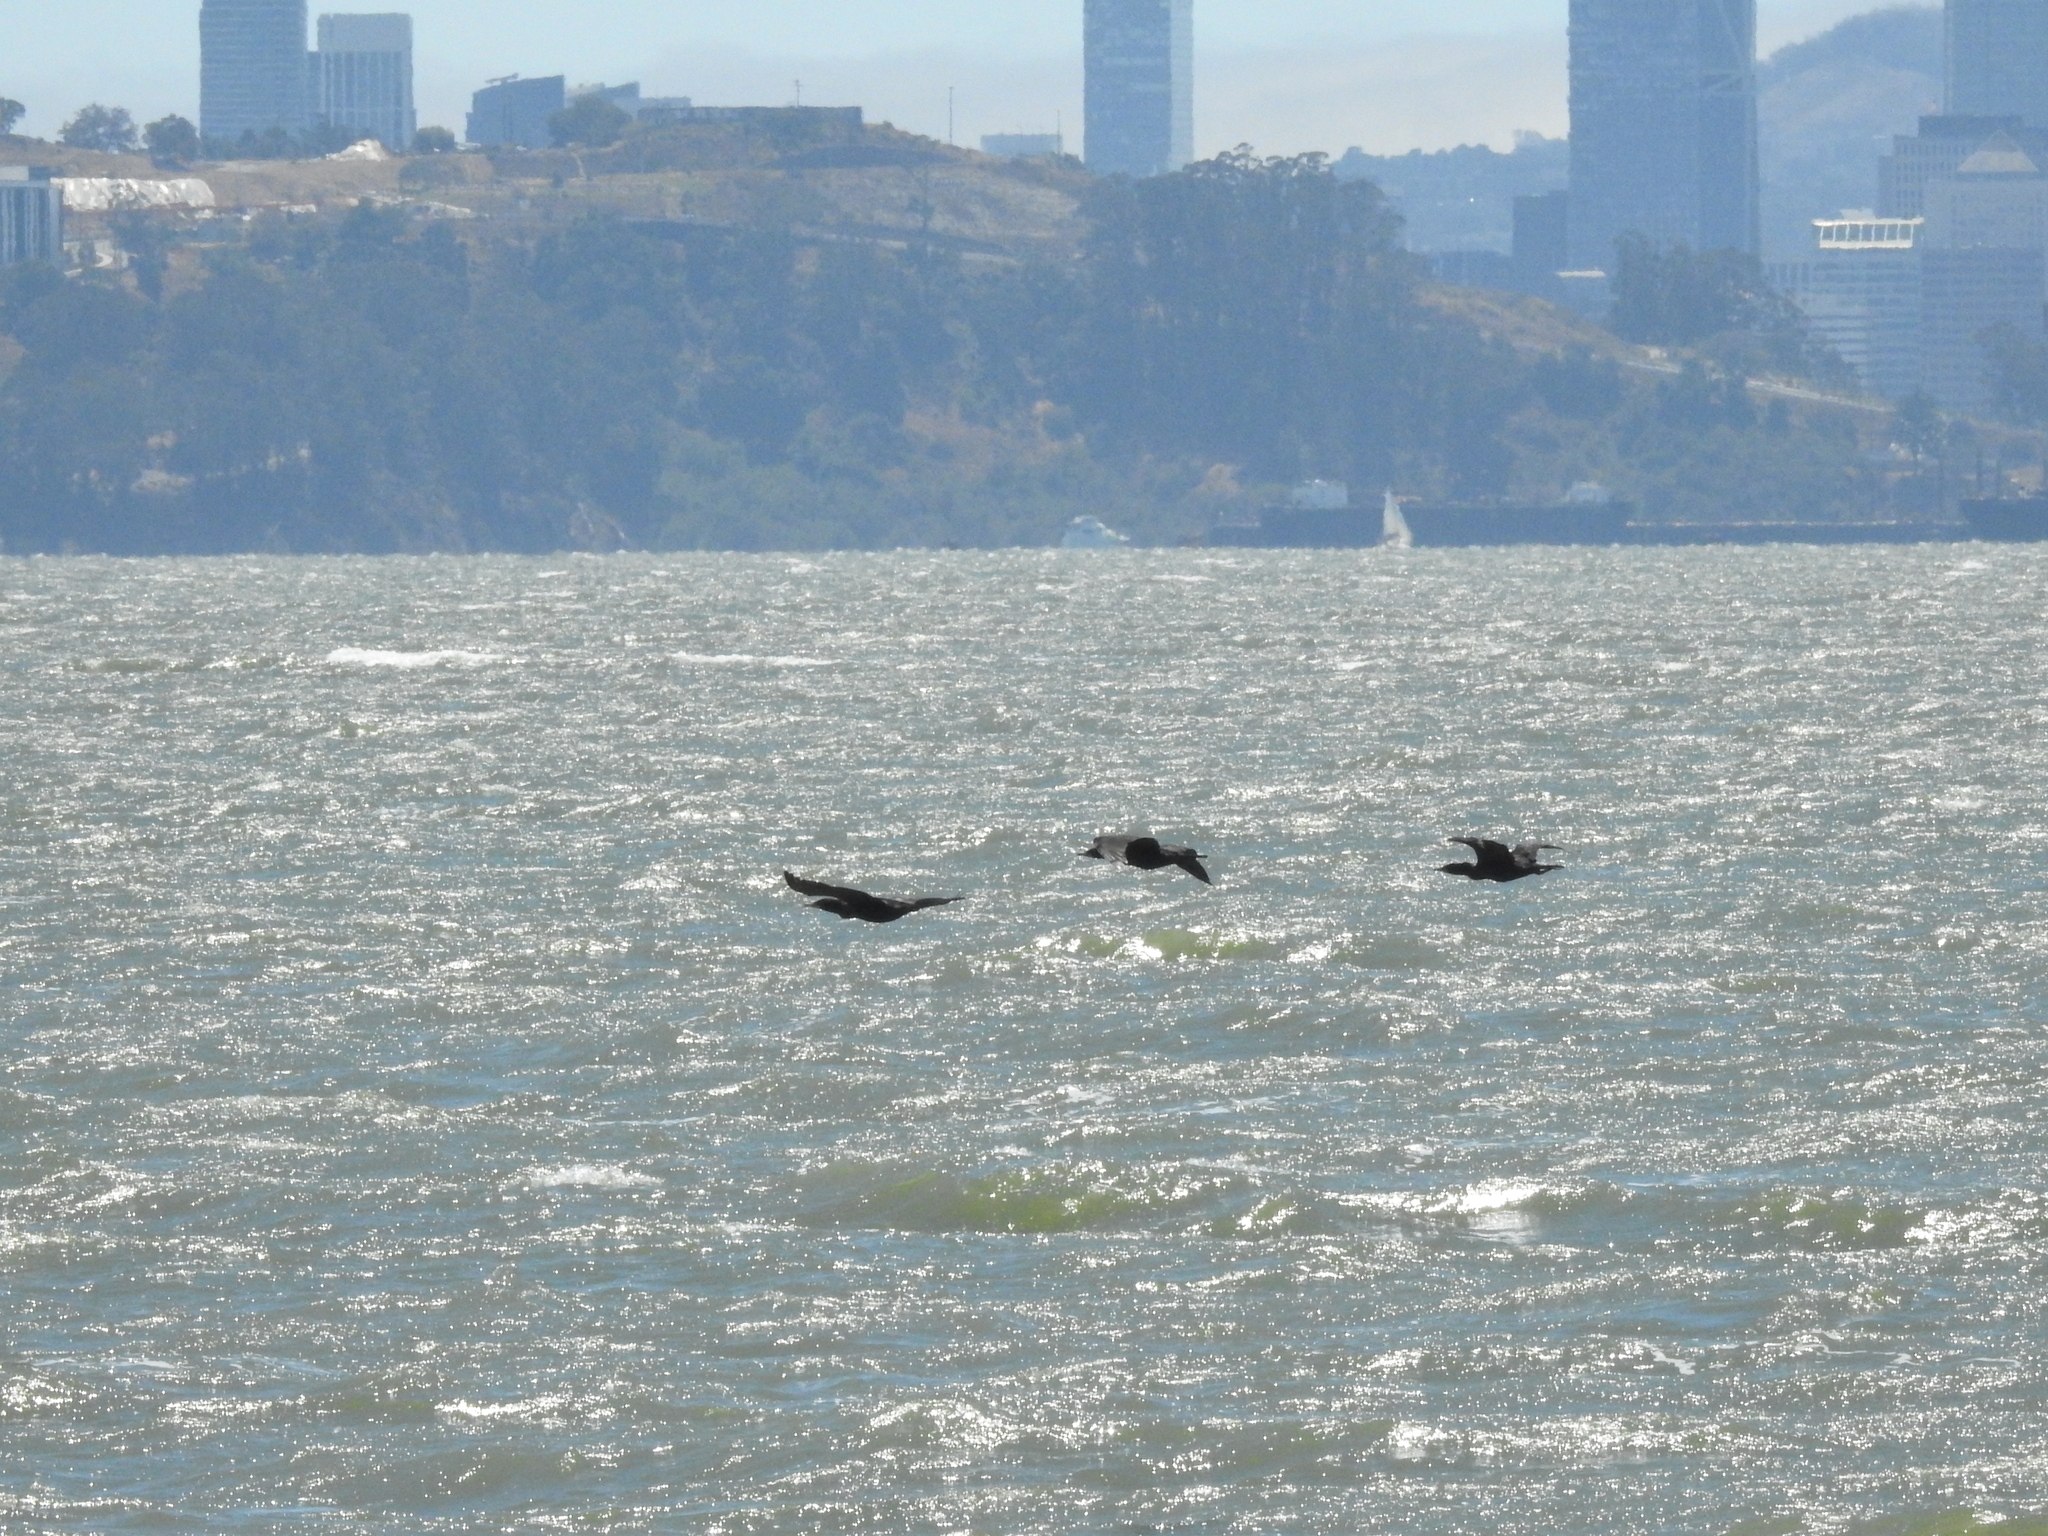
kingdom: Animalia
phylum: Chordata
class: Aves
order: Suliformes
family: Phalacrocoracidae
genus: Phalacrocorax
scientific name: Phalacrocorax auritus
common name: Double-crested cormorant
